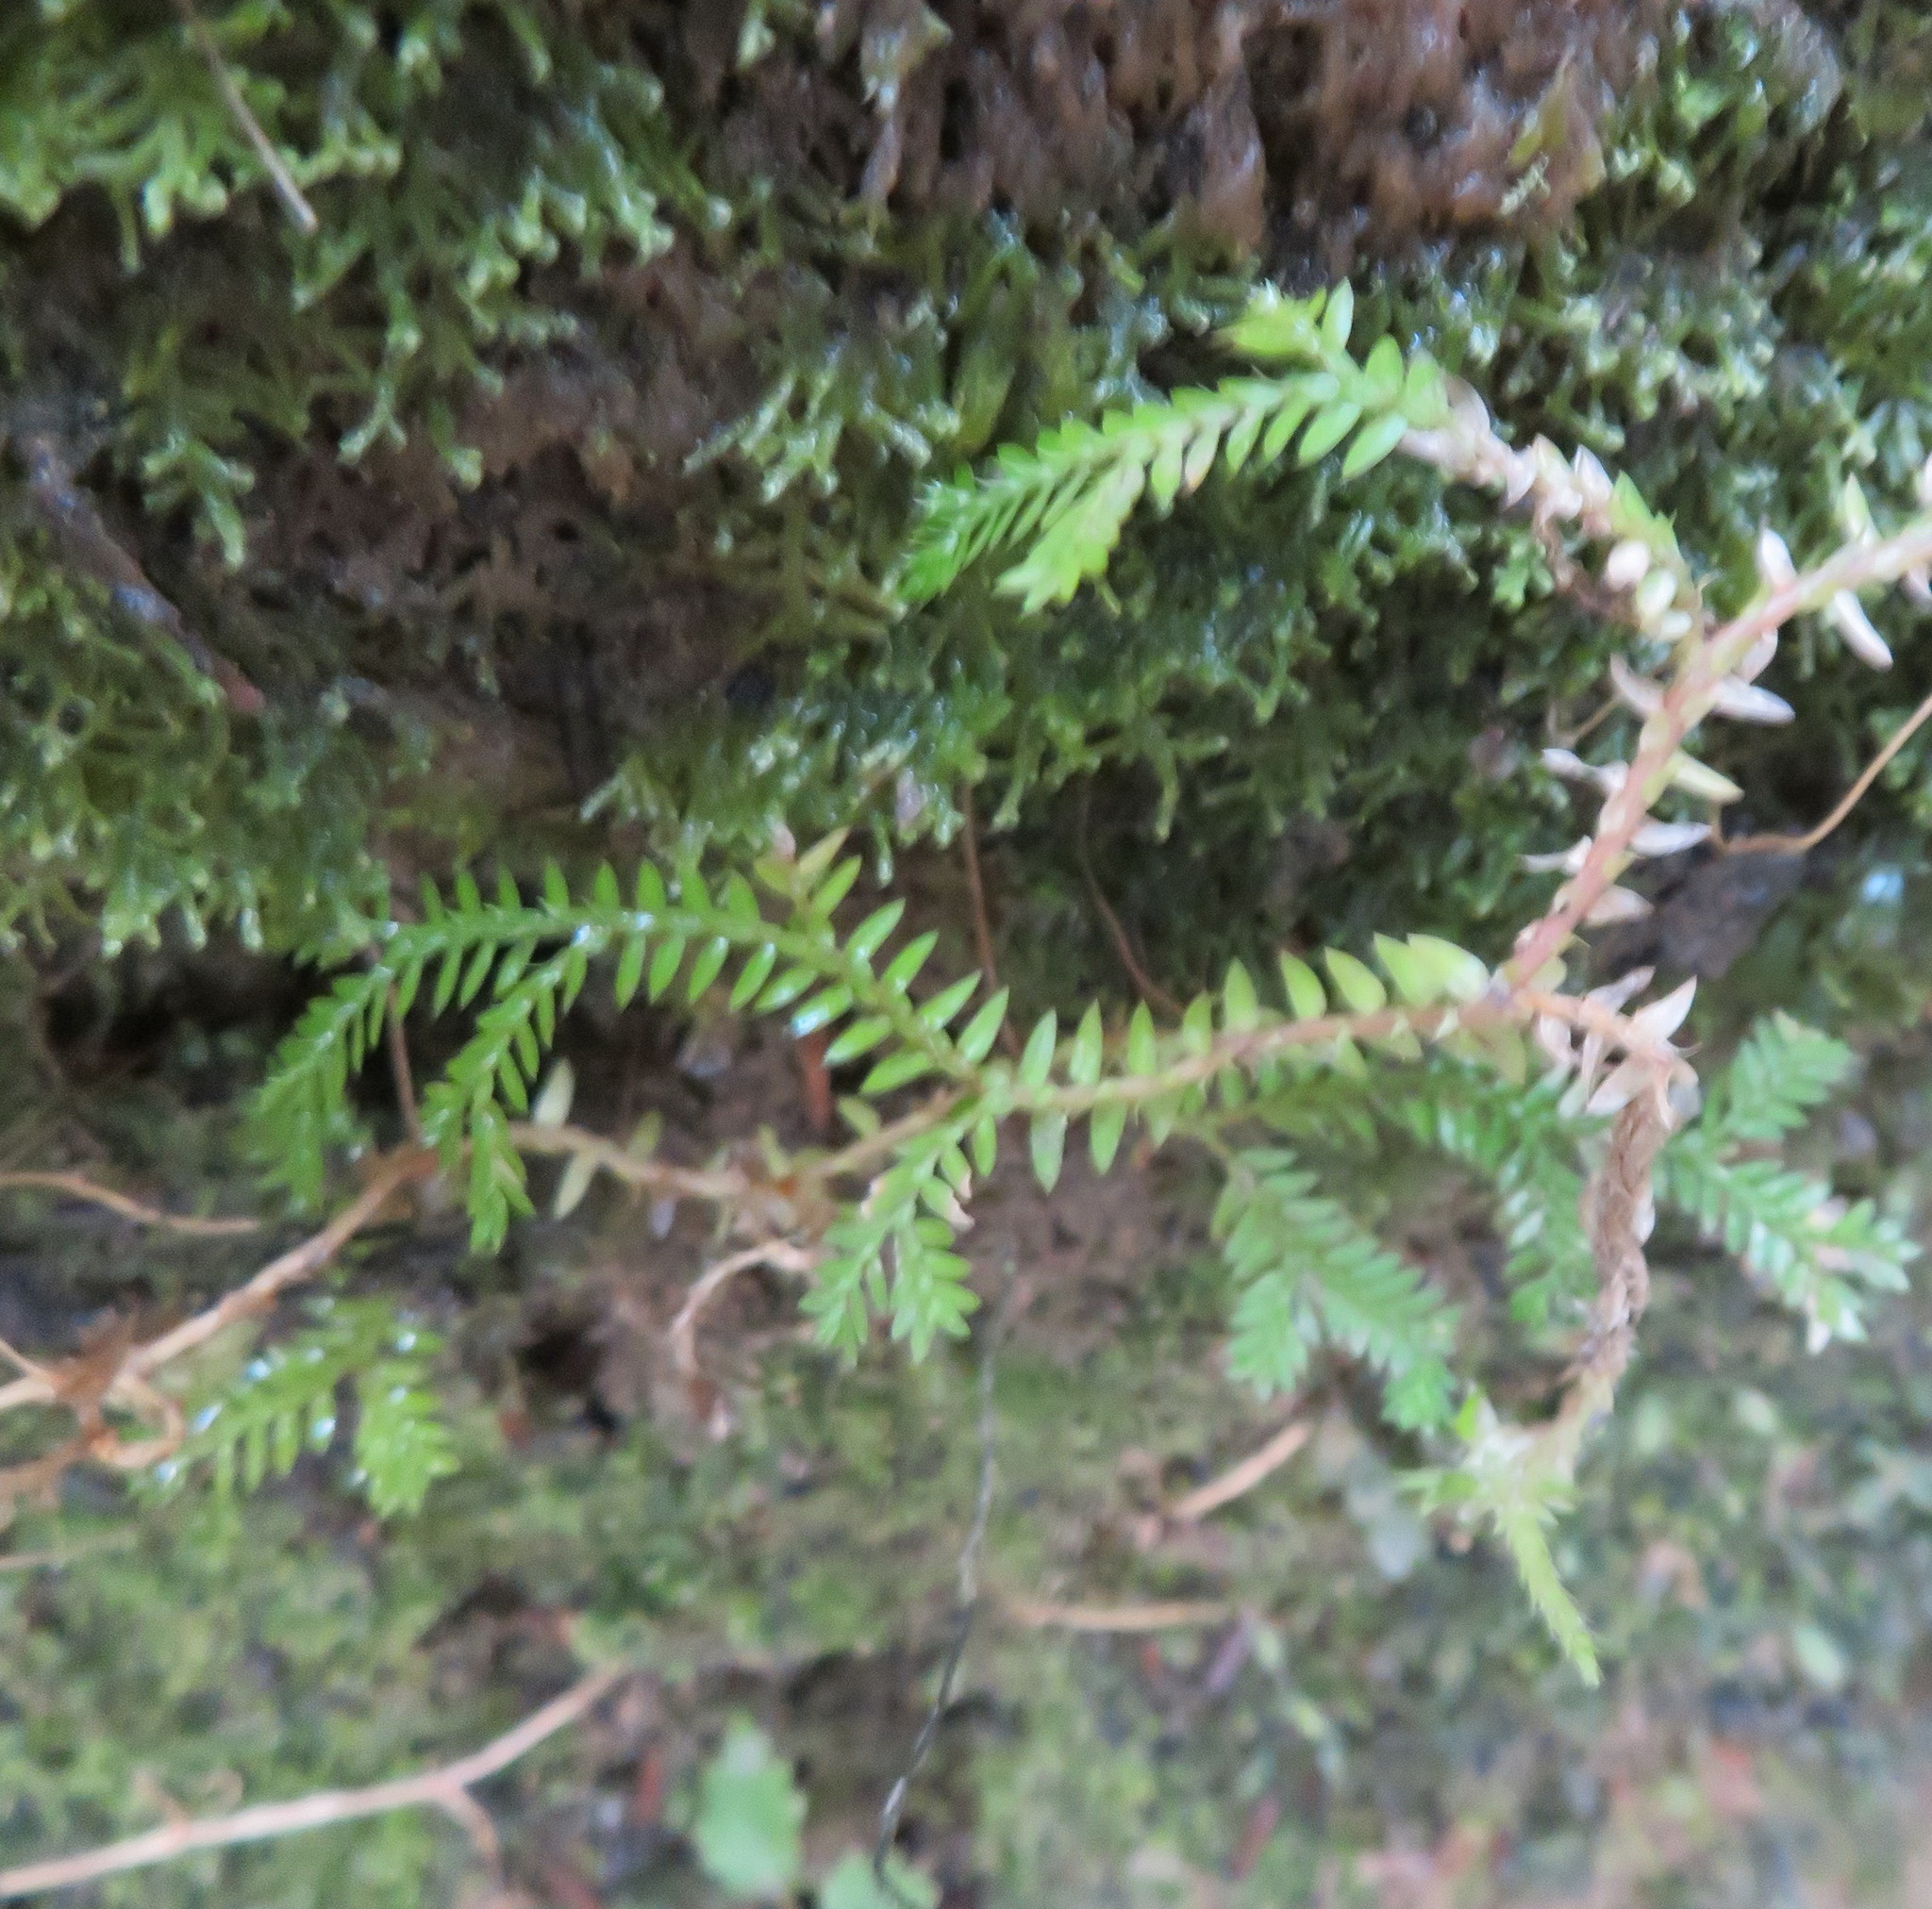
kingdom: Plantae
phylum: Tracheophyta
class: Lycopodiopsida
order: Selaginellales
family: Selaginellaceae
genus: Selaginella
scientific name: Selaginella kraussiana
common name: Krauss' spikemoss
